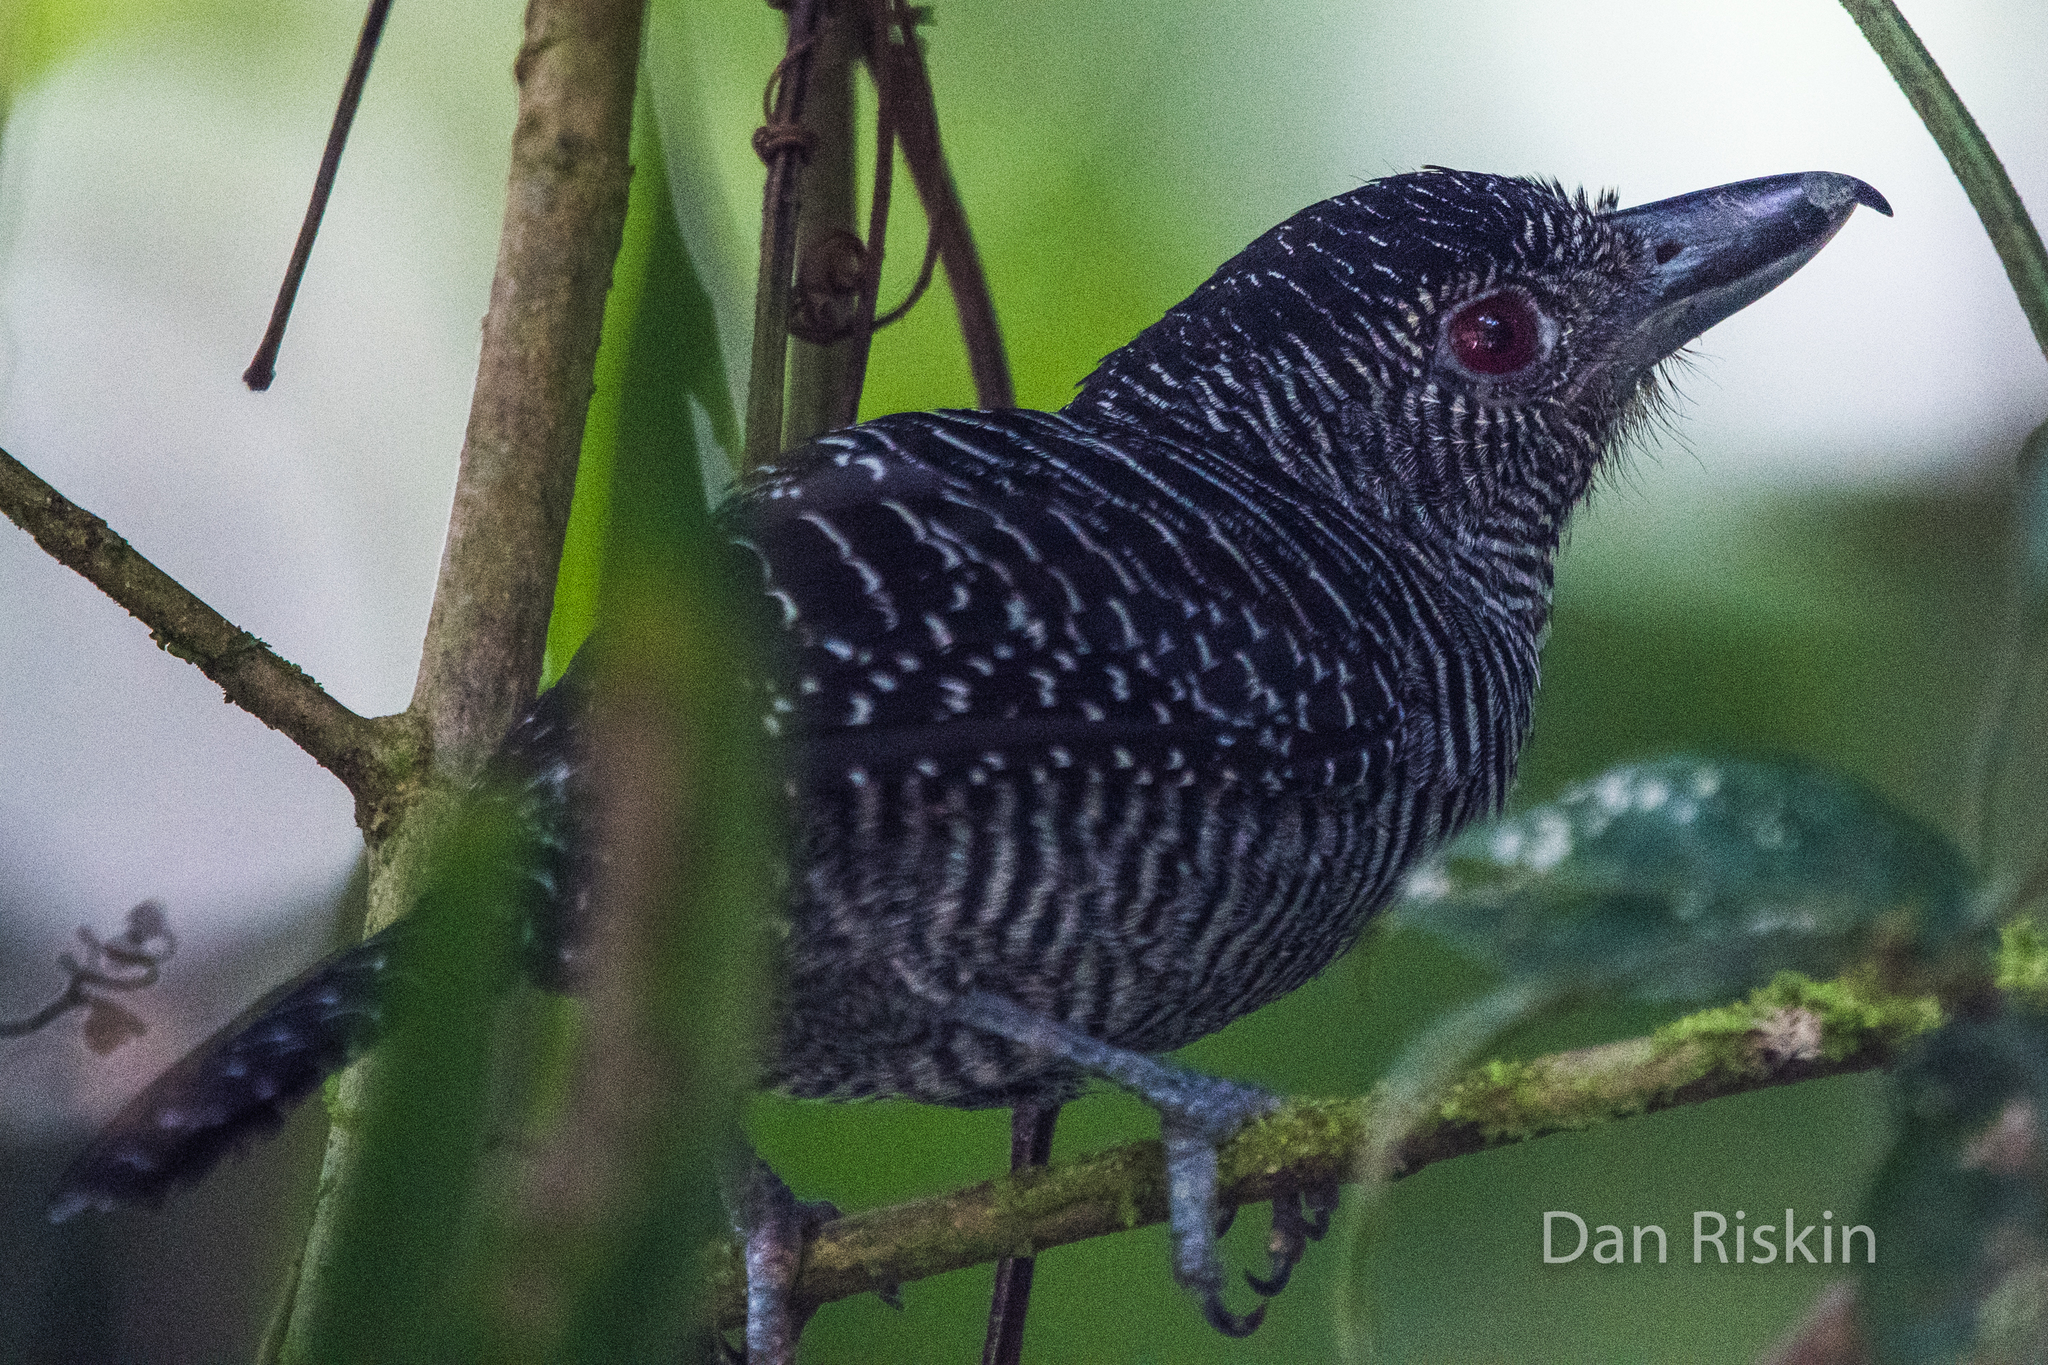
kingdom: Animalia
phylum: Chordata
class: Aves
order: Passeriformes
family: Thamnophilidae
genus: Cymbilaimus
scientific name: Cymbilaimus lineatus
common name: Fasciated antshrike
